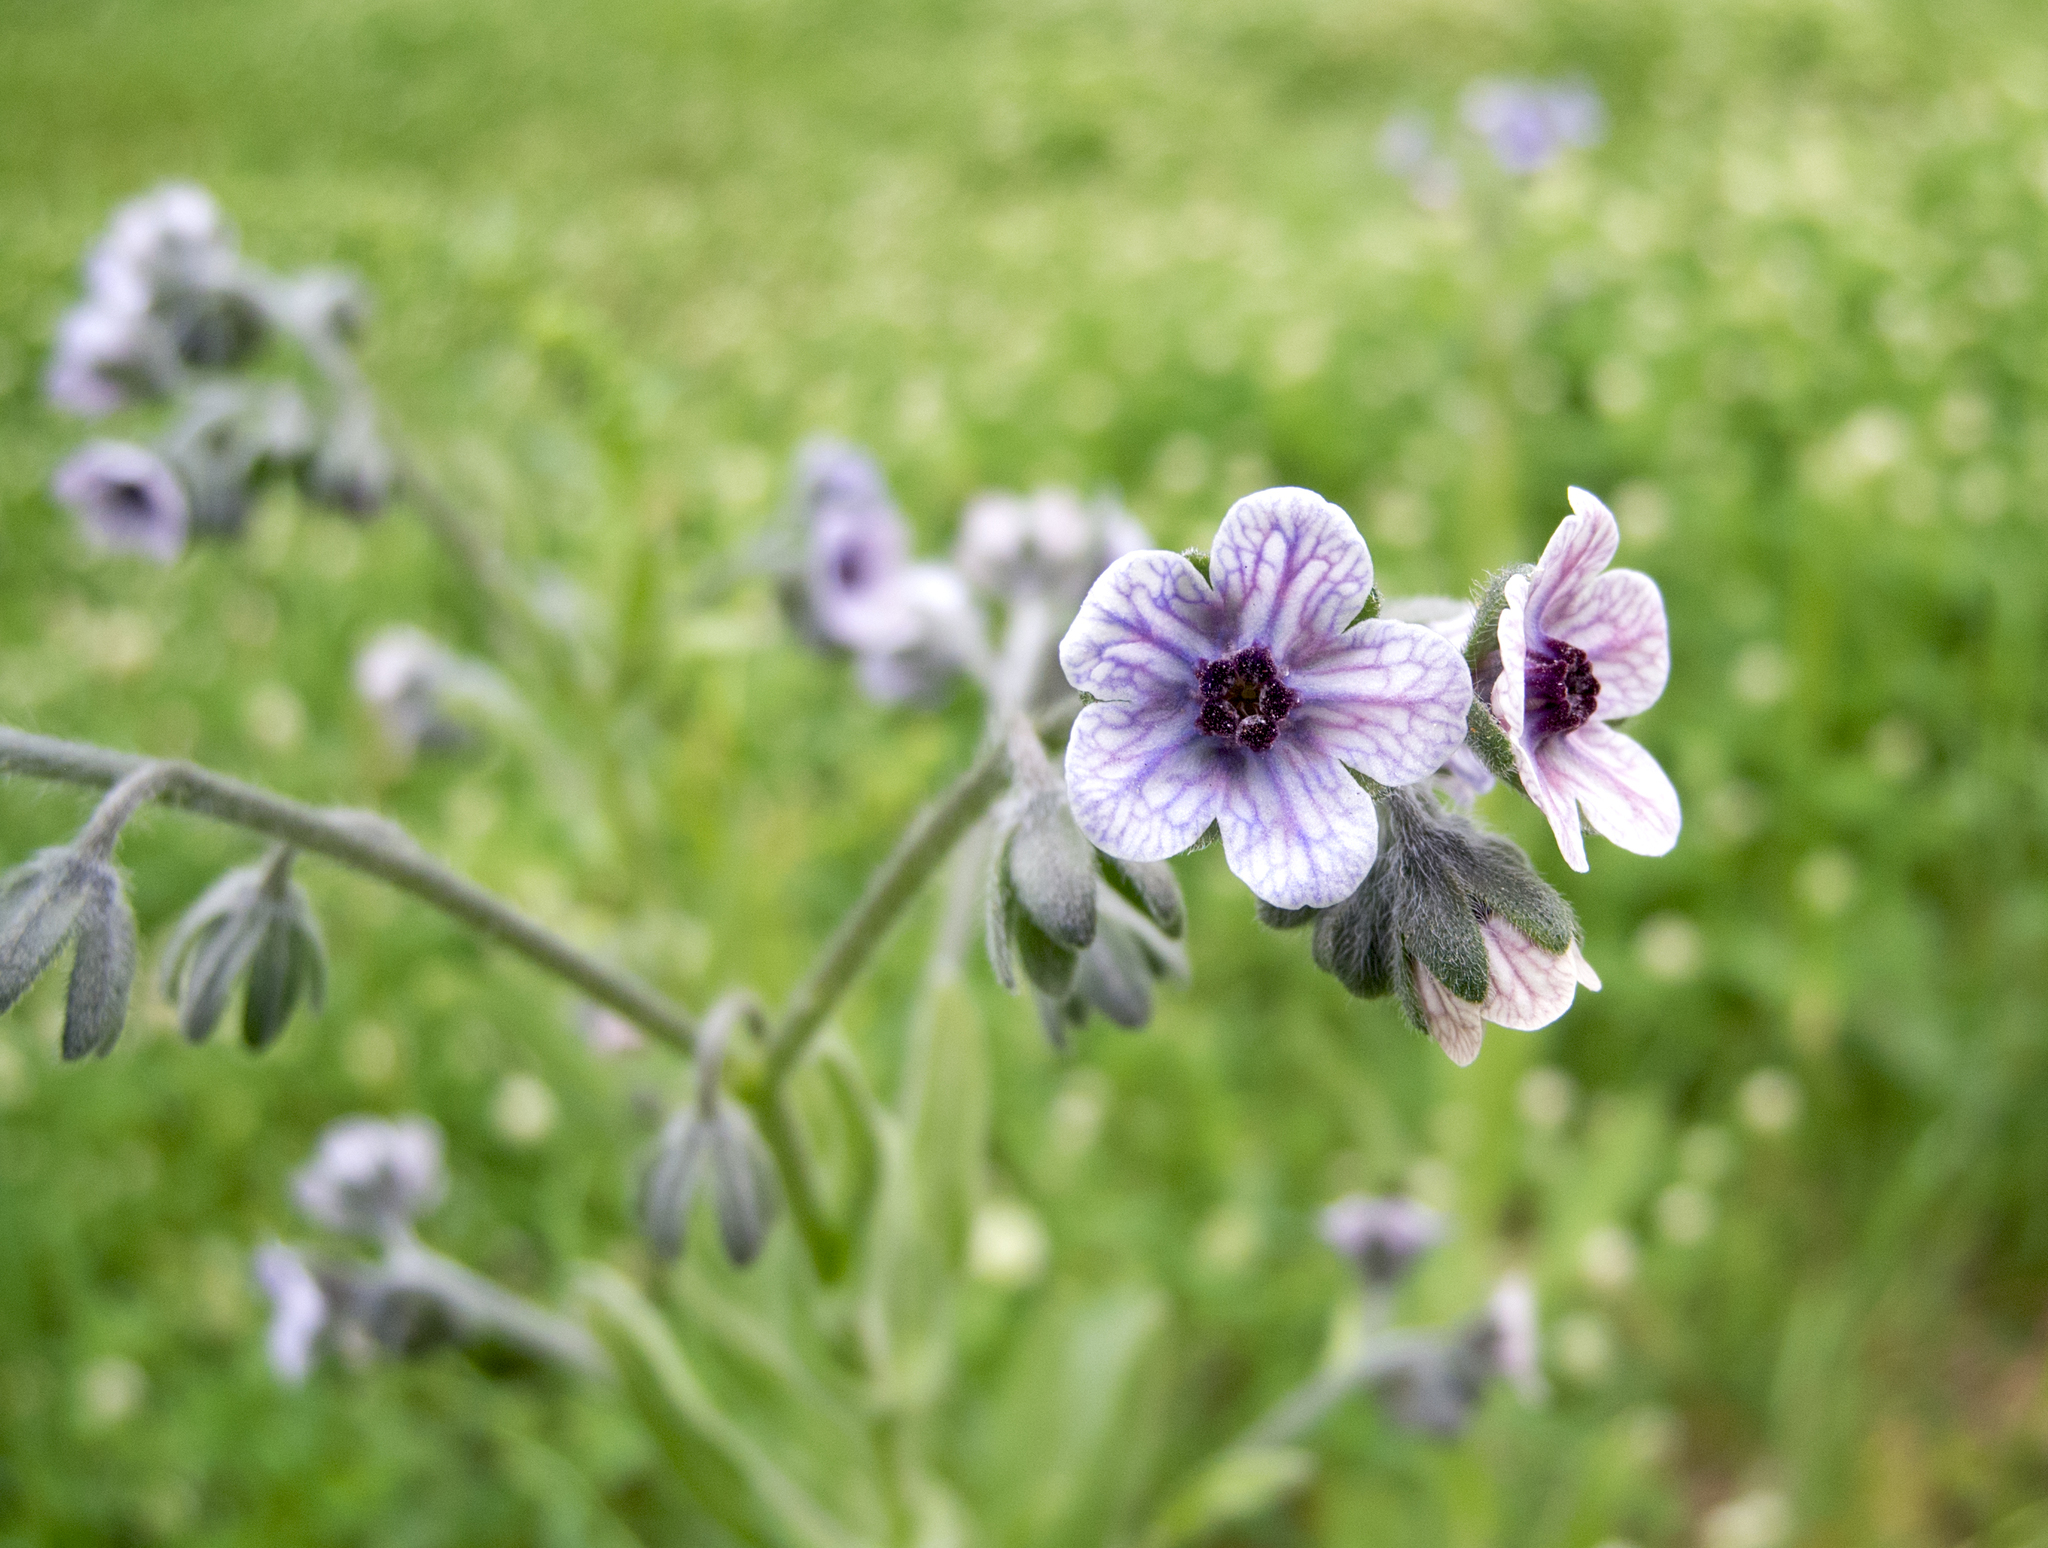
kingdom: Plantae
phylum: Tracheophyta
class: Magnoliopsida
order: Boraginales
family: Boraginaceae
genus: Cynoglossum
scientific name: Cynoglossum creticum
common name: Blue hound's tongue
